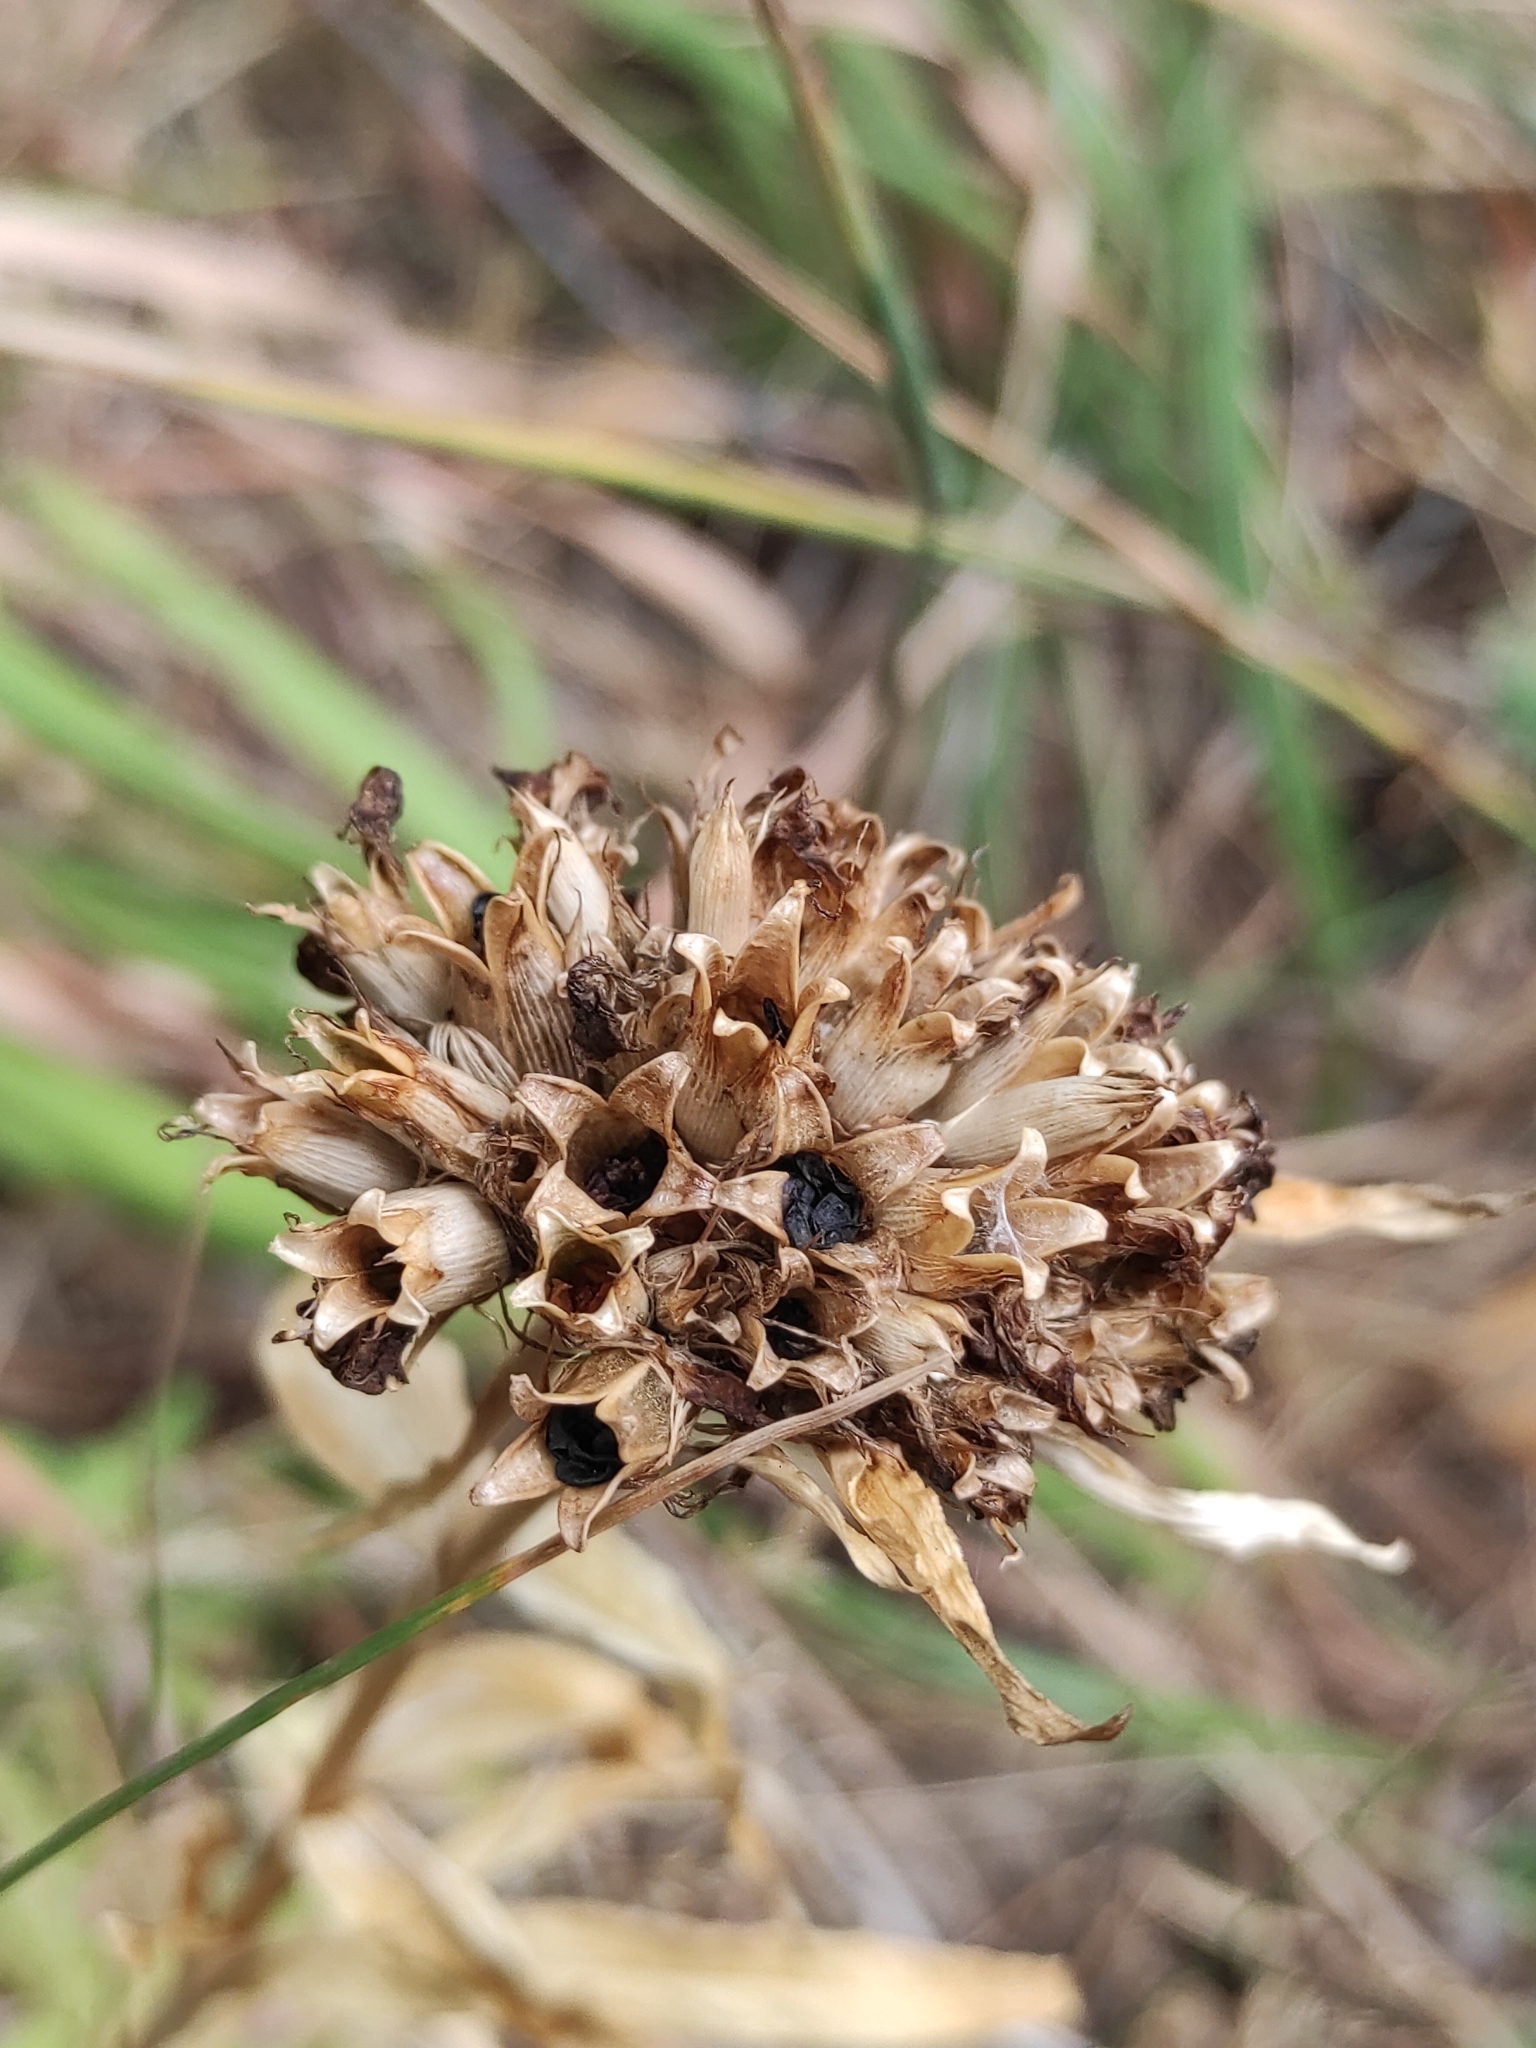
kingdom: Plantae
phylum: Tracheophyta
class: Magnoliopsida
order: Caryophyllales
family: Caryophyllaceae
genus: Dianthus
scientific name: Dianthus barbatus
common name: Sweet-william
